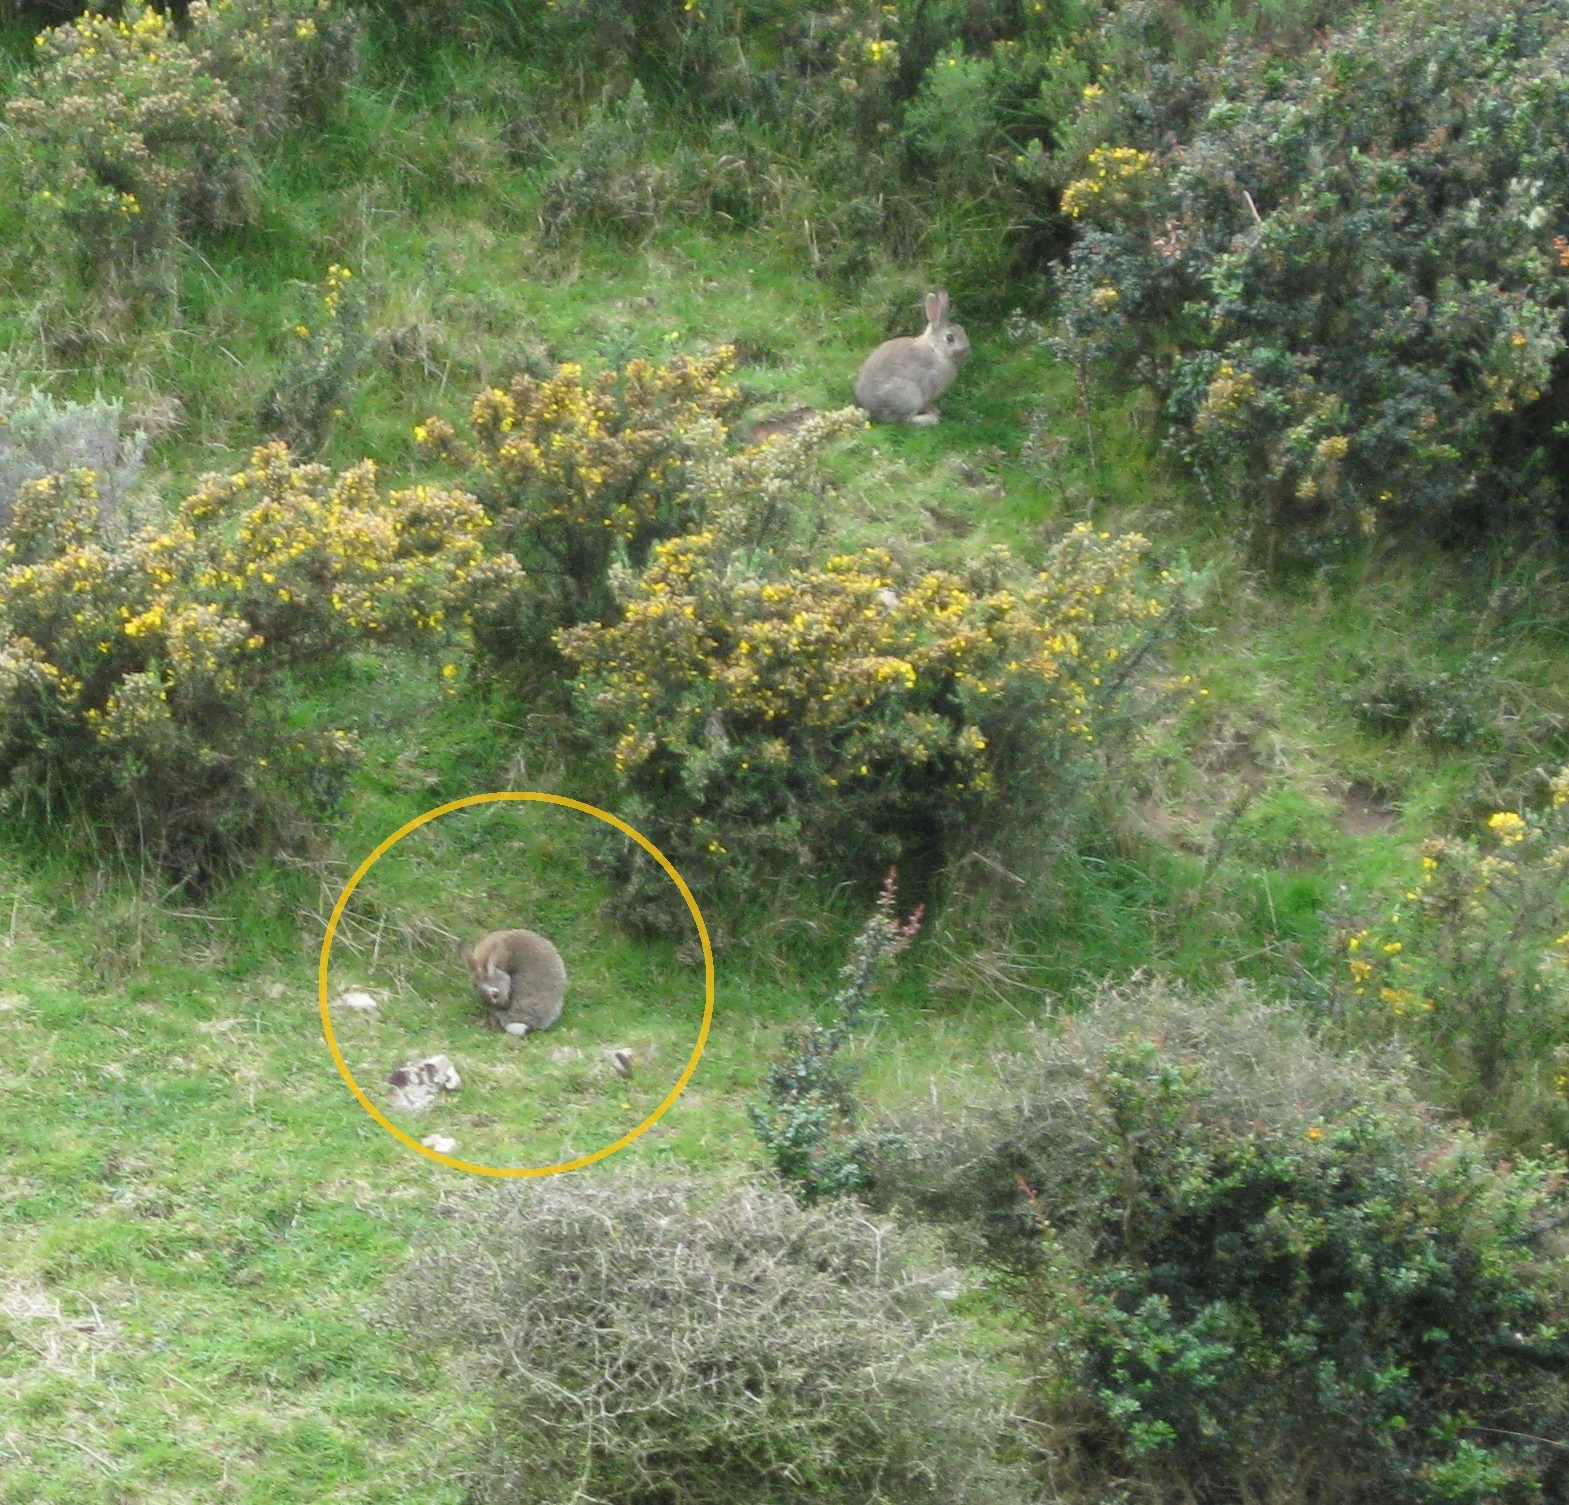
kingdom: Animalia
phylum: Chordata
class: Mammalia
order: Lagomorpha
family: Leporidae
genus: Oryctolagus
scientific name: Oryctolagus cuniculus
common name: European rabbit
